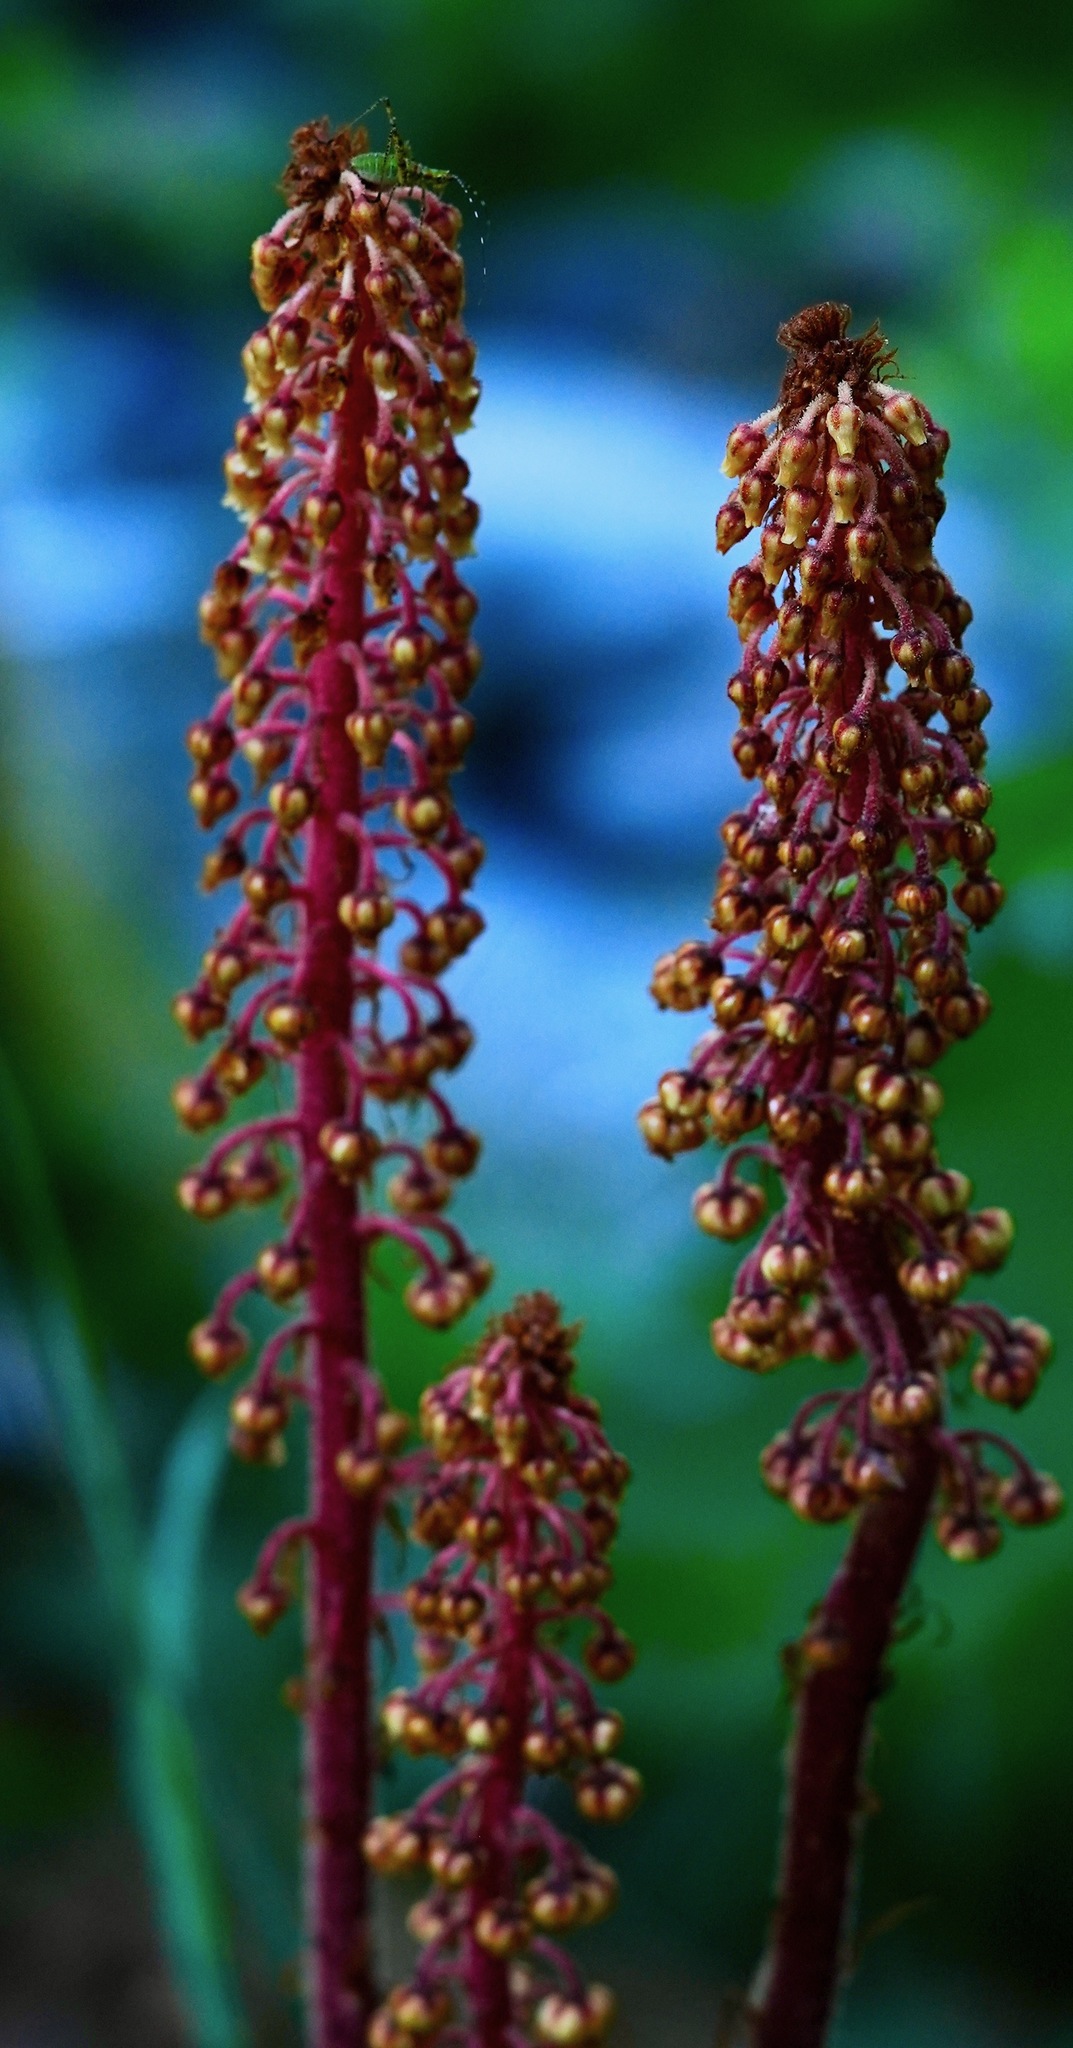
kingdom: Plantae
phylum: Tracheophyta
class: Magnoliopsida
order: Ericales
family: Ericaceae
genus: Pterospora
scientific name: Pterospora andromedea
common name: Giant bird's-nest
